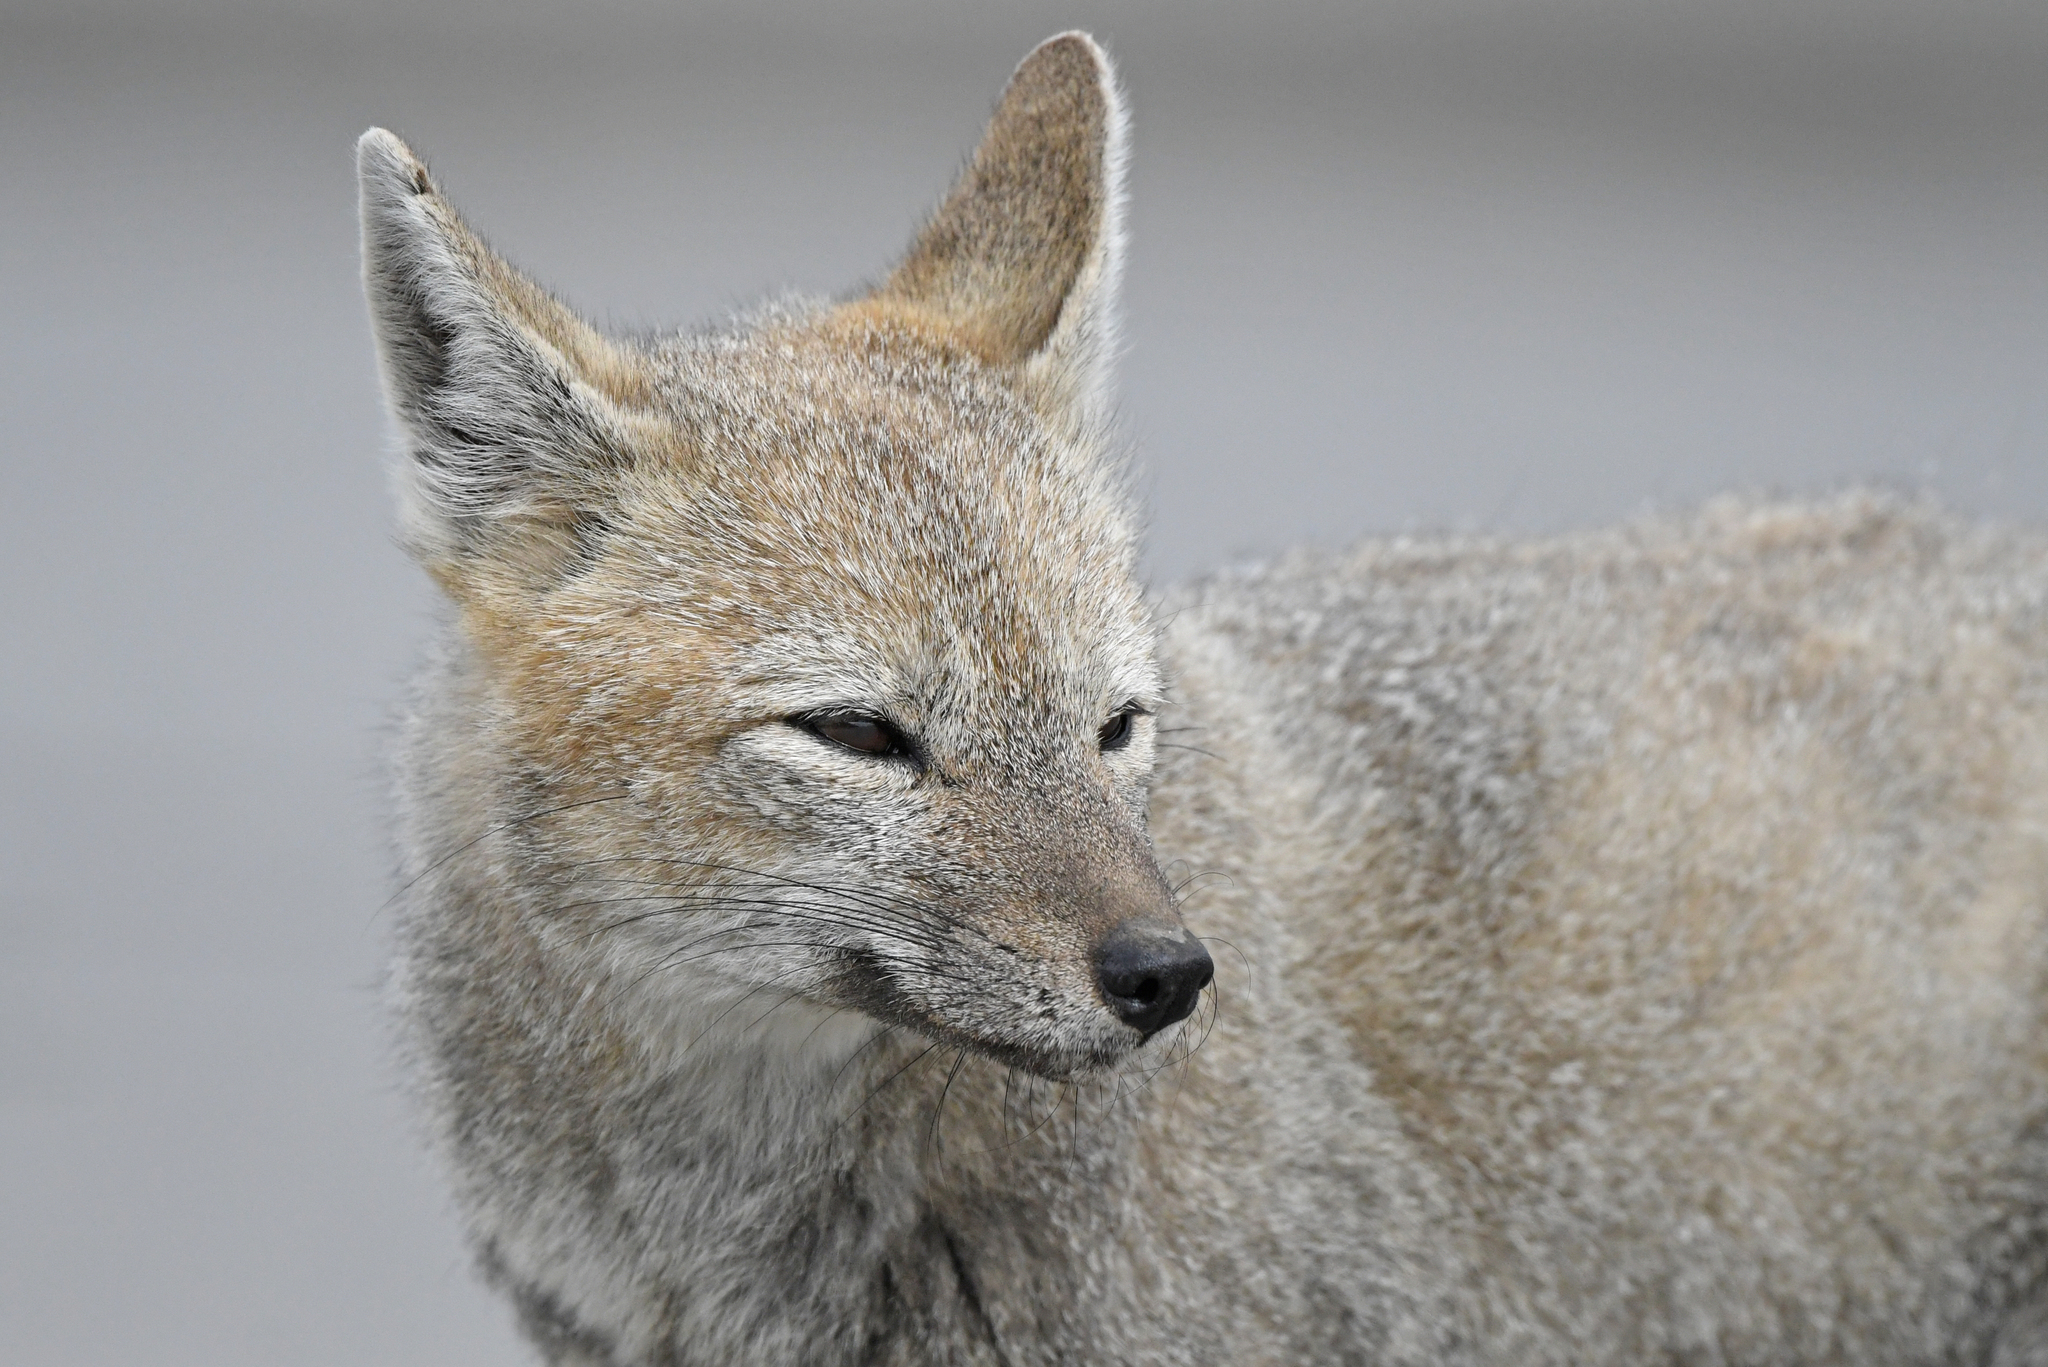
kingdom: Animalia
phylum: Chordata
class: Mammalia
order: Carnivora
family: Canidae
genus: Lycalopex
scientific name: Lycalopex gymnocercus
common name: Pampas fox
